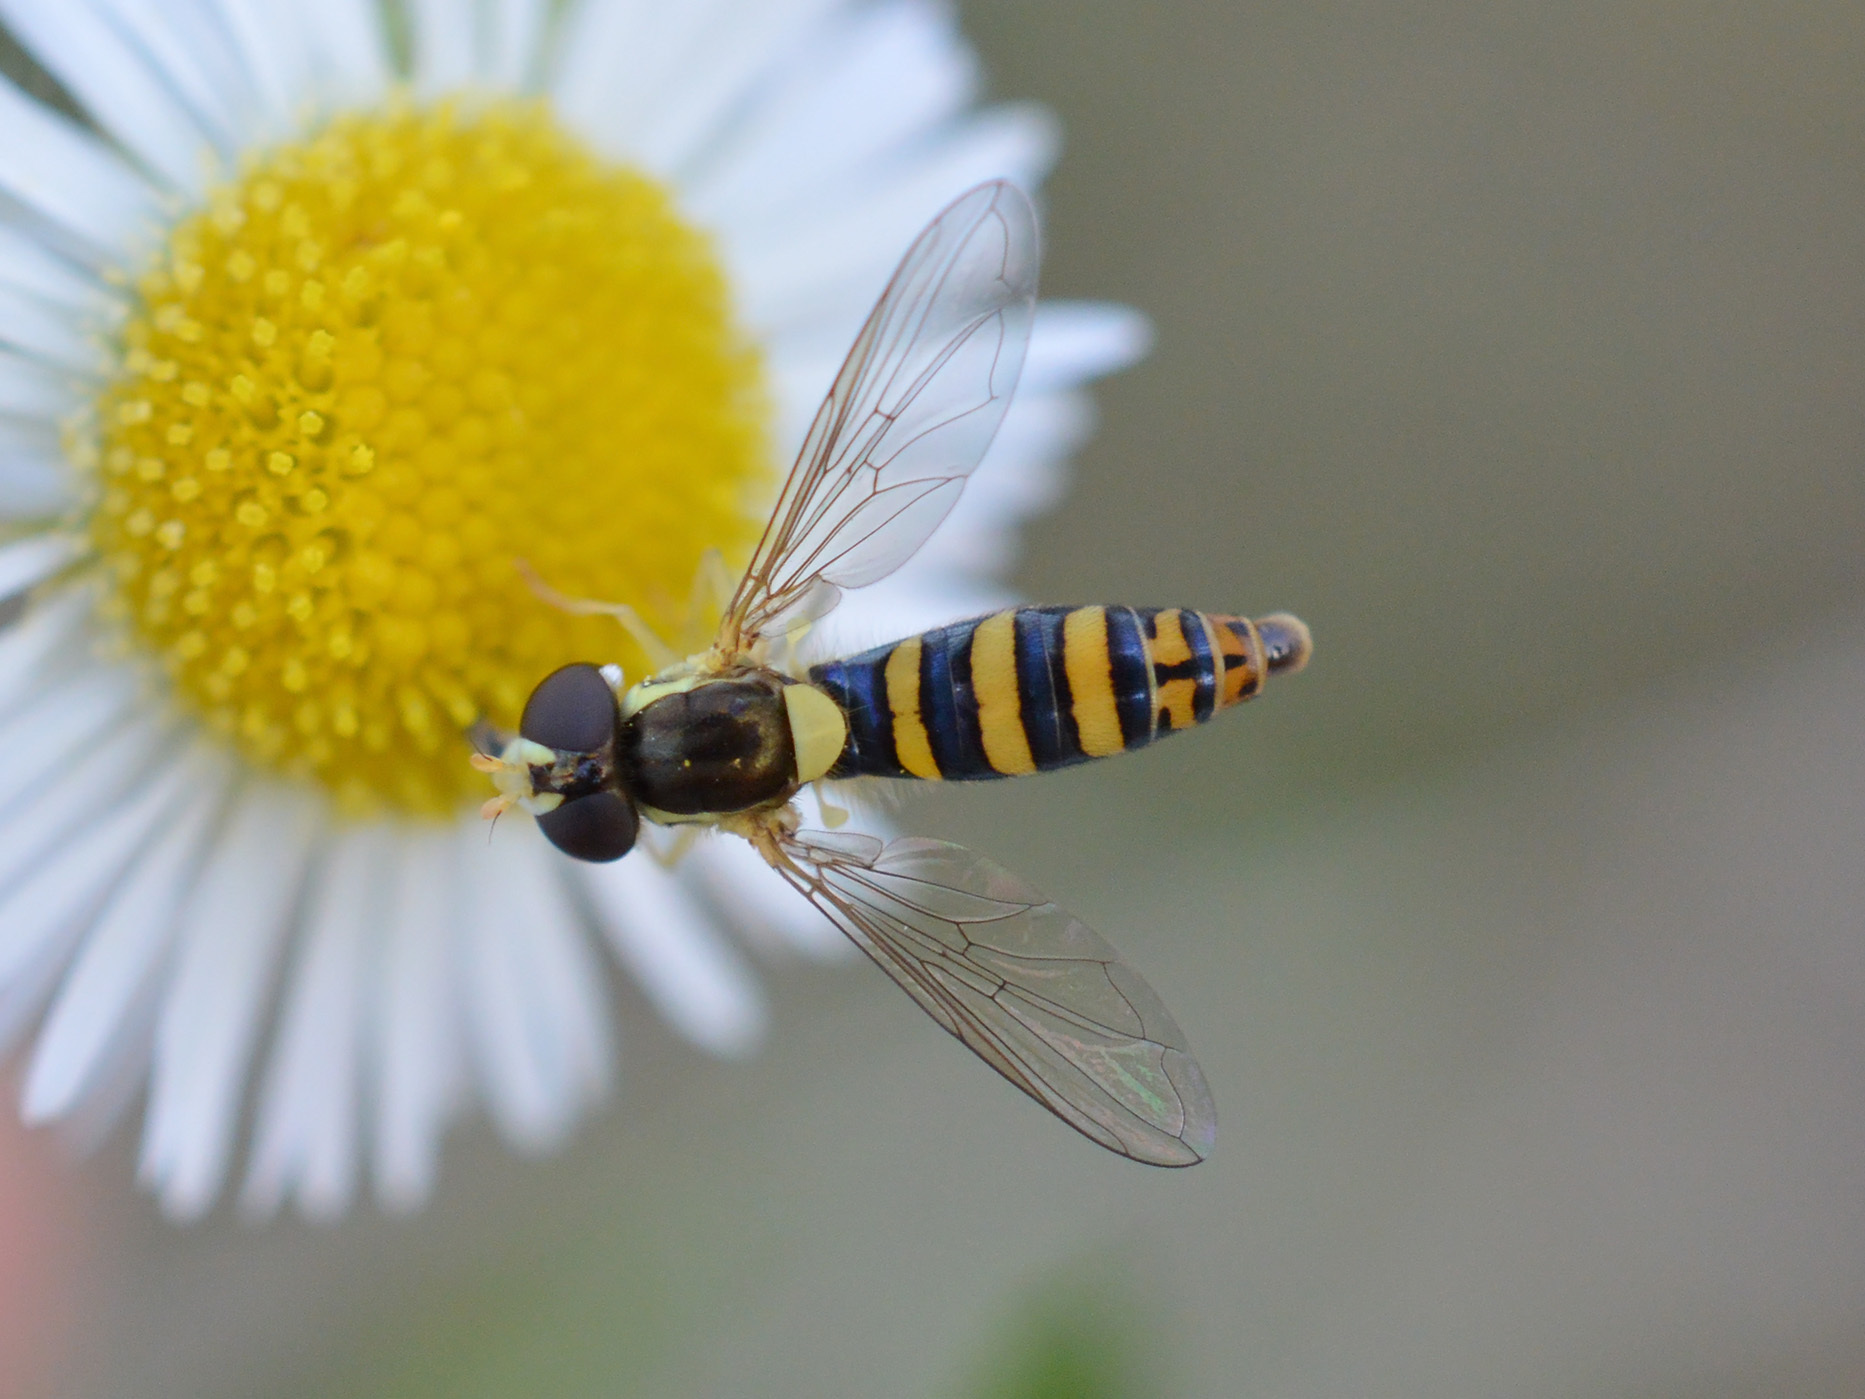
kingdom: Animalia
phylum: Arthropoda
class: Insecta
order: Diptera
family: Syrphidae
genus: Sphaerophoria
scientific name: Sphaerophoria
